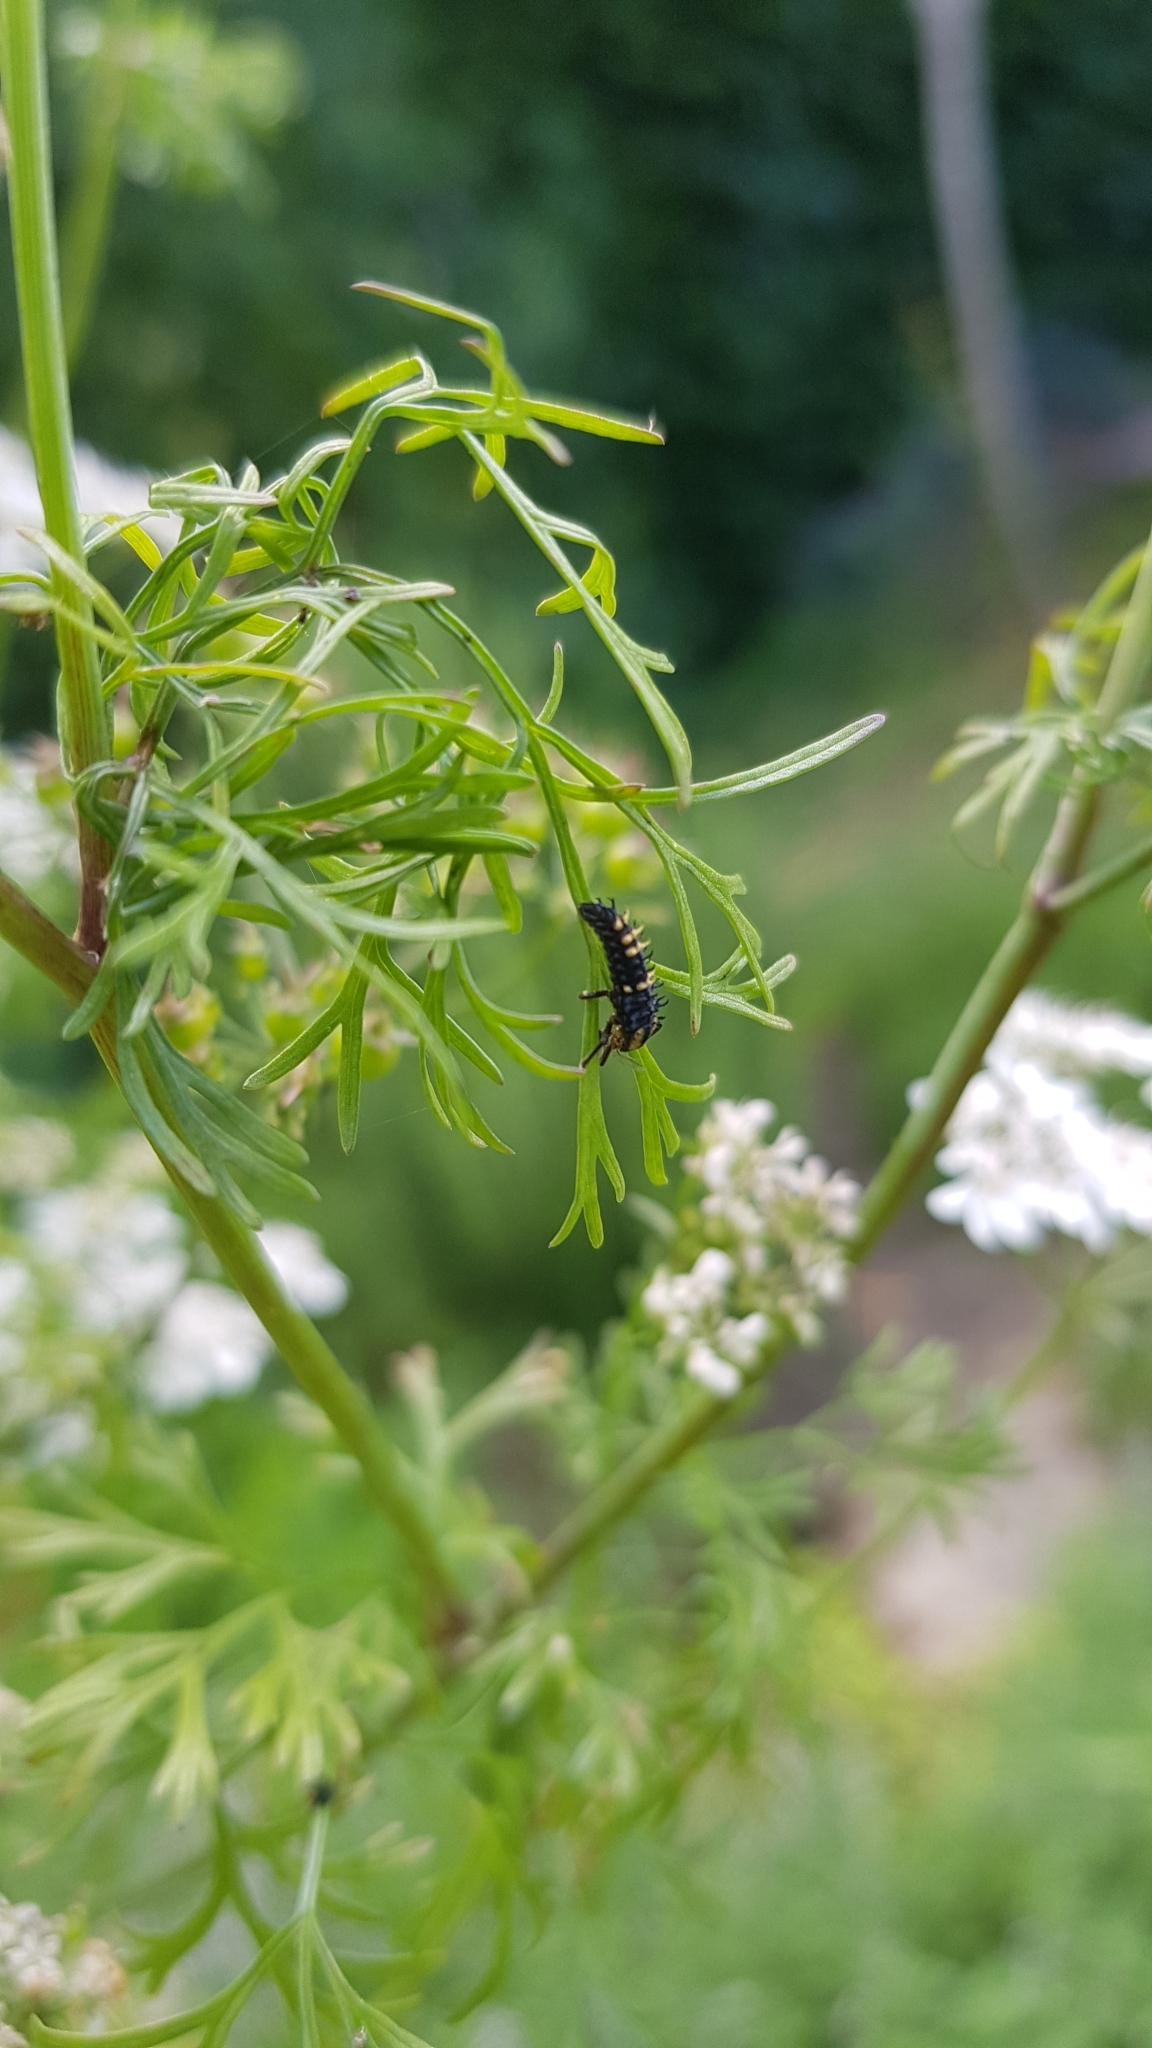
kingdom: Animalia
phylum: Arthropoda
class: Insecta
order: Coleoptera
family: Coccinellidae
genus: Harmonia
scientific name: Harmonia
